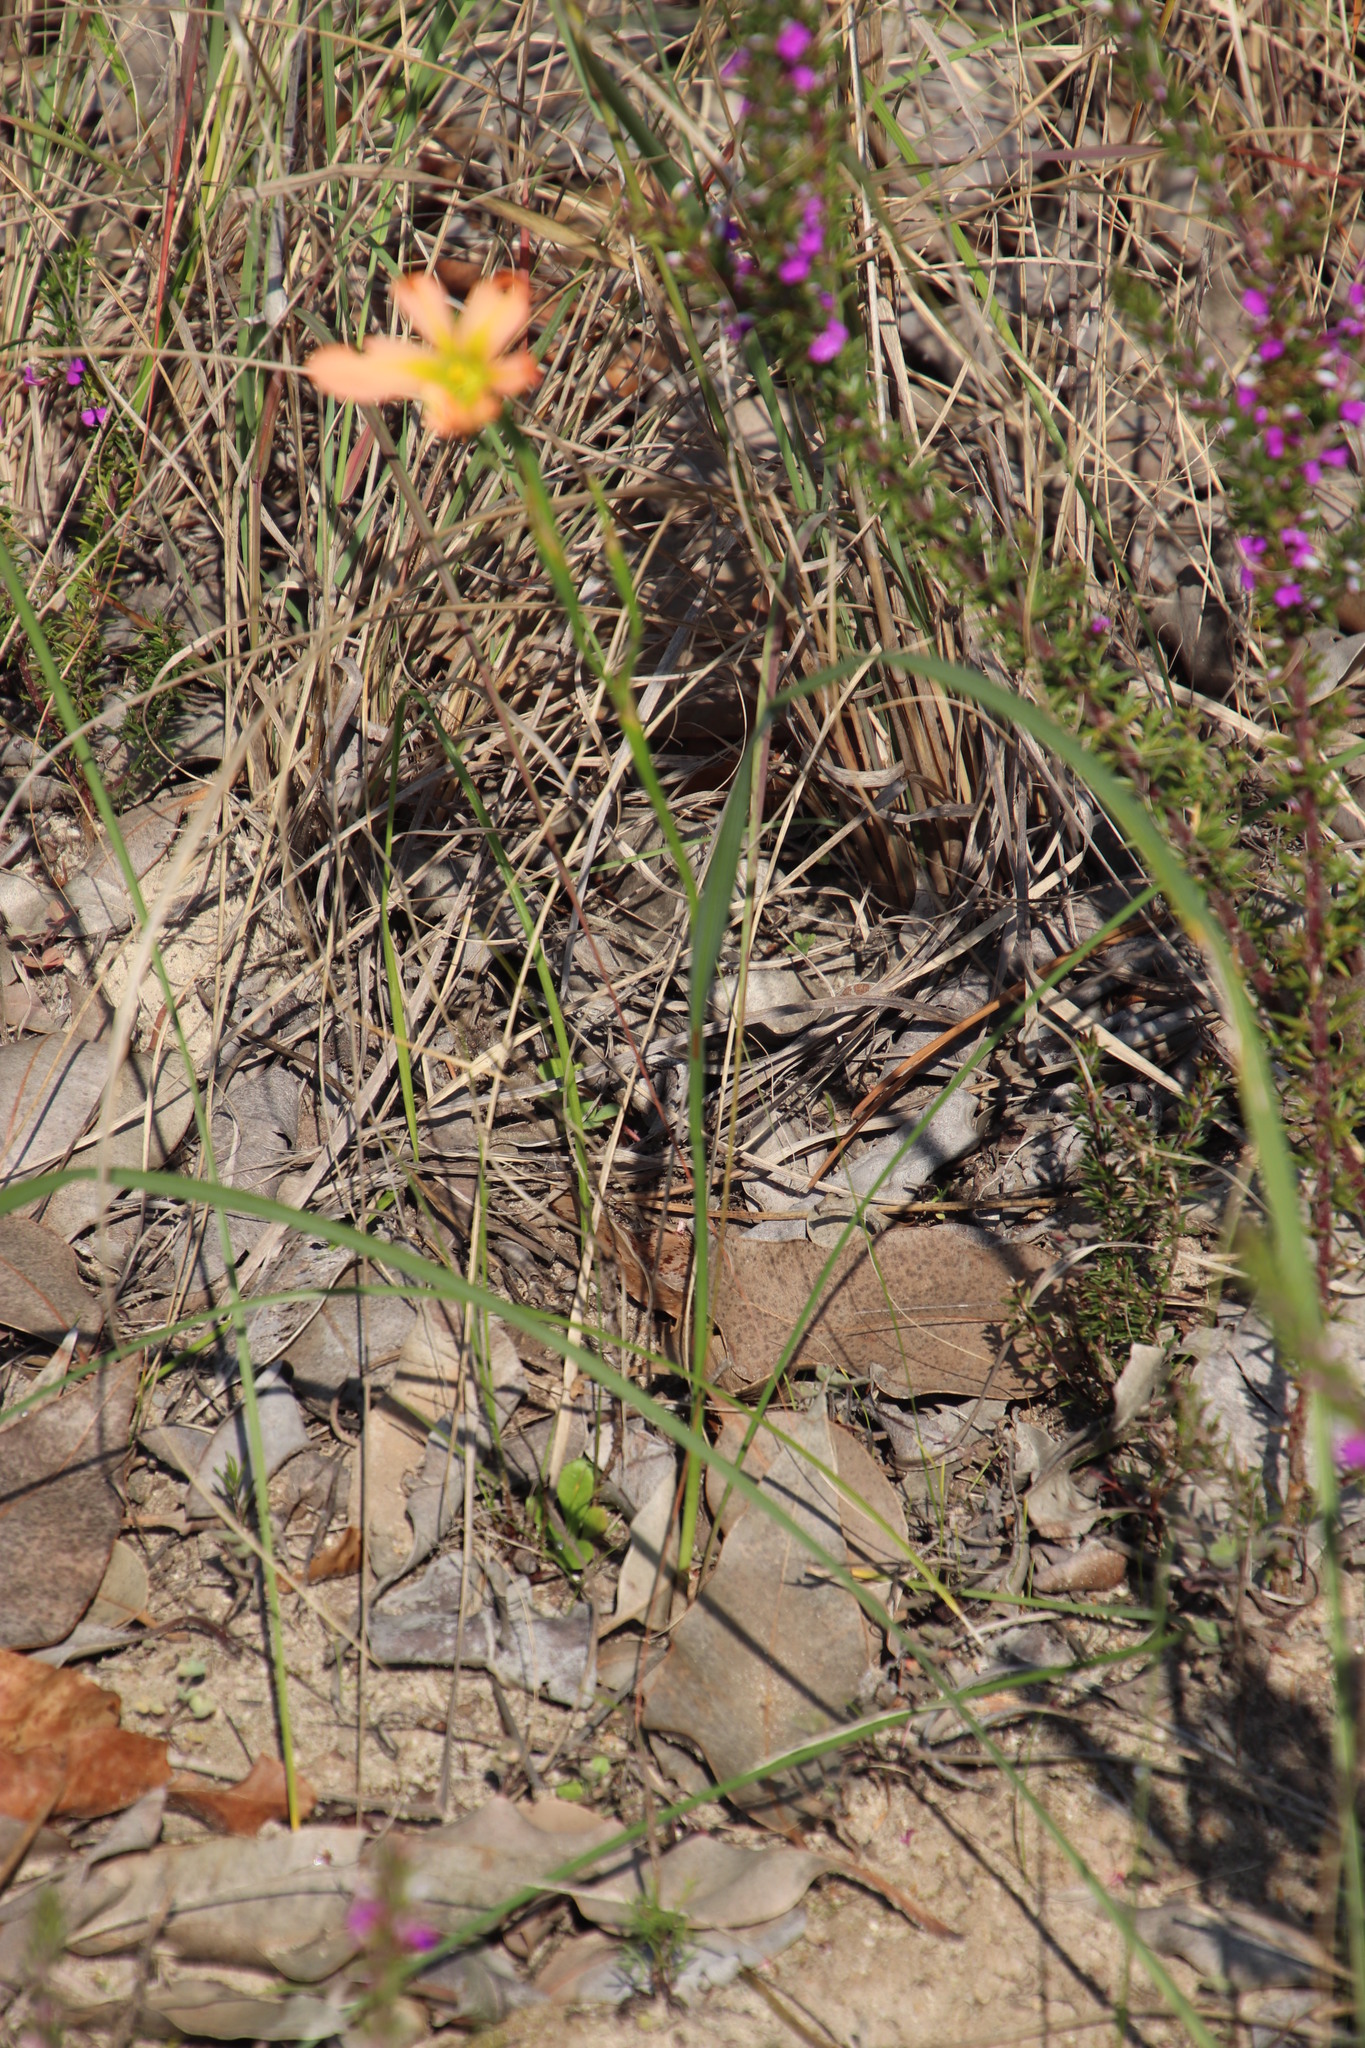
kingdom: Plantae
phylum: Tracheophyta
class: Liliopsida
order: Asparagales
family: Iridaceae
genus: Moraea
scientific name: Moraea flaccida
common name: One-leaf cape-tulip
